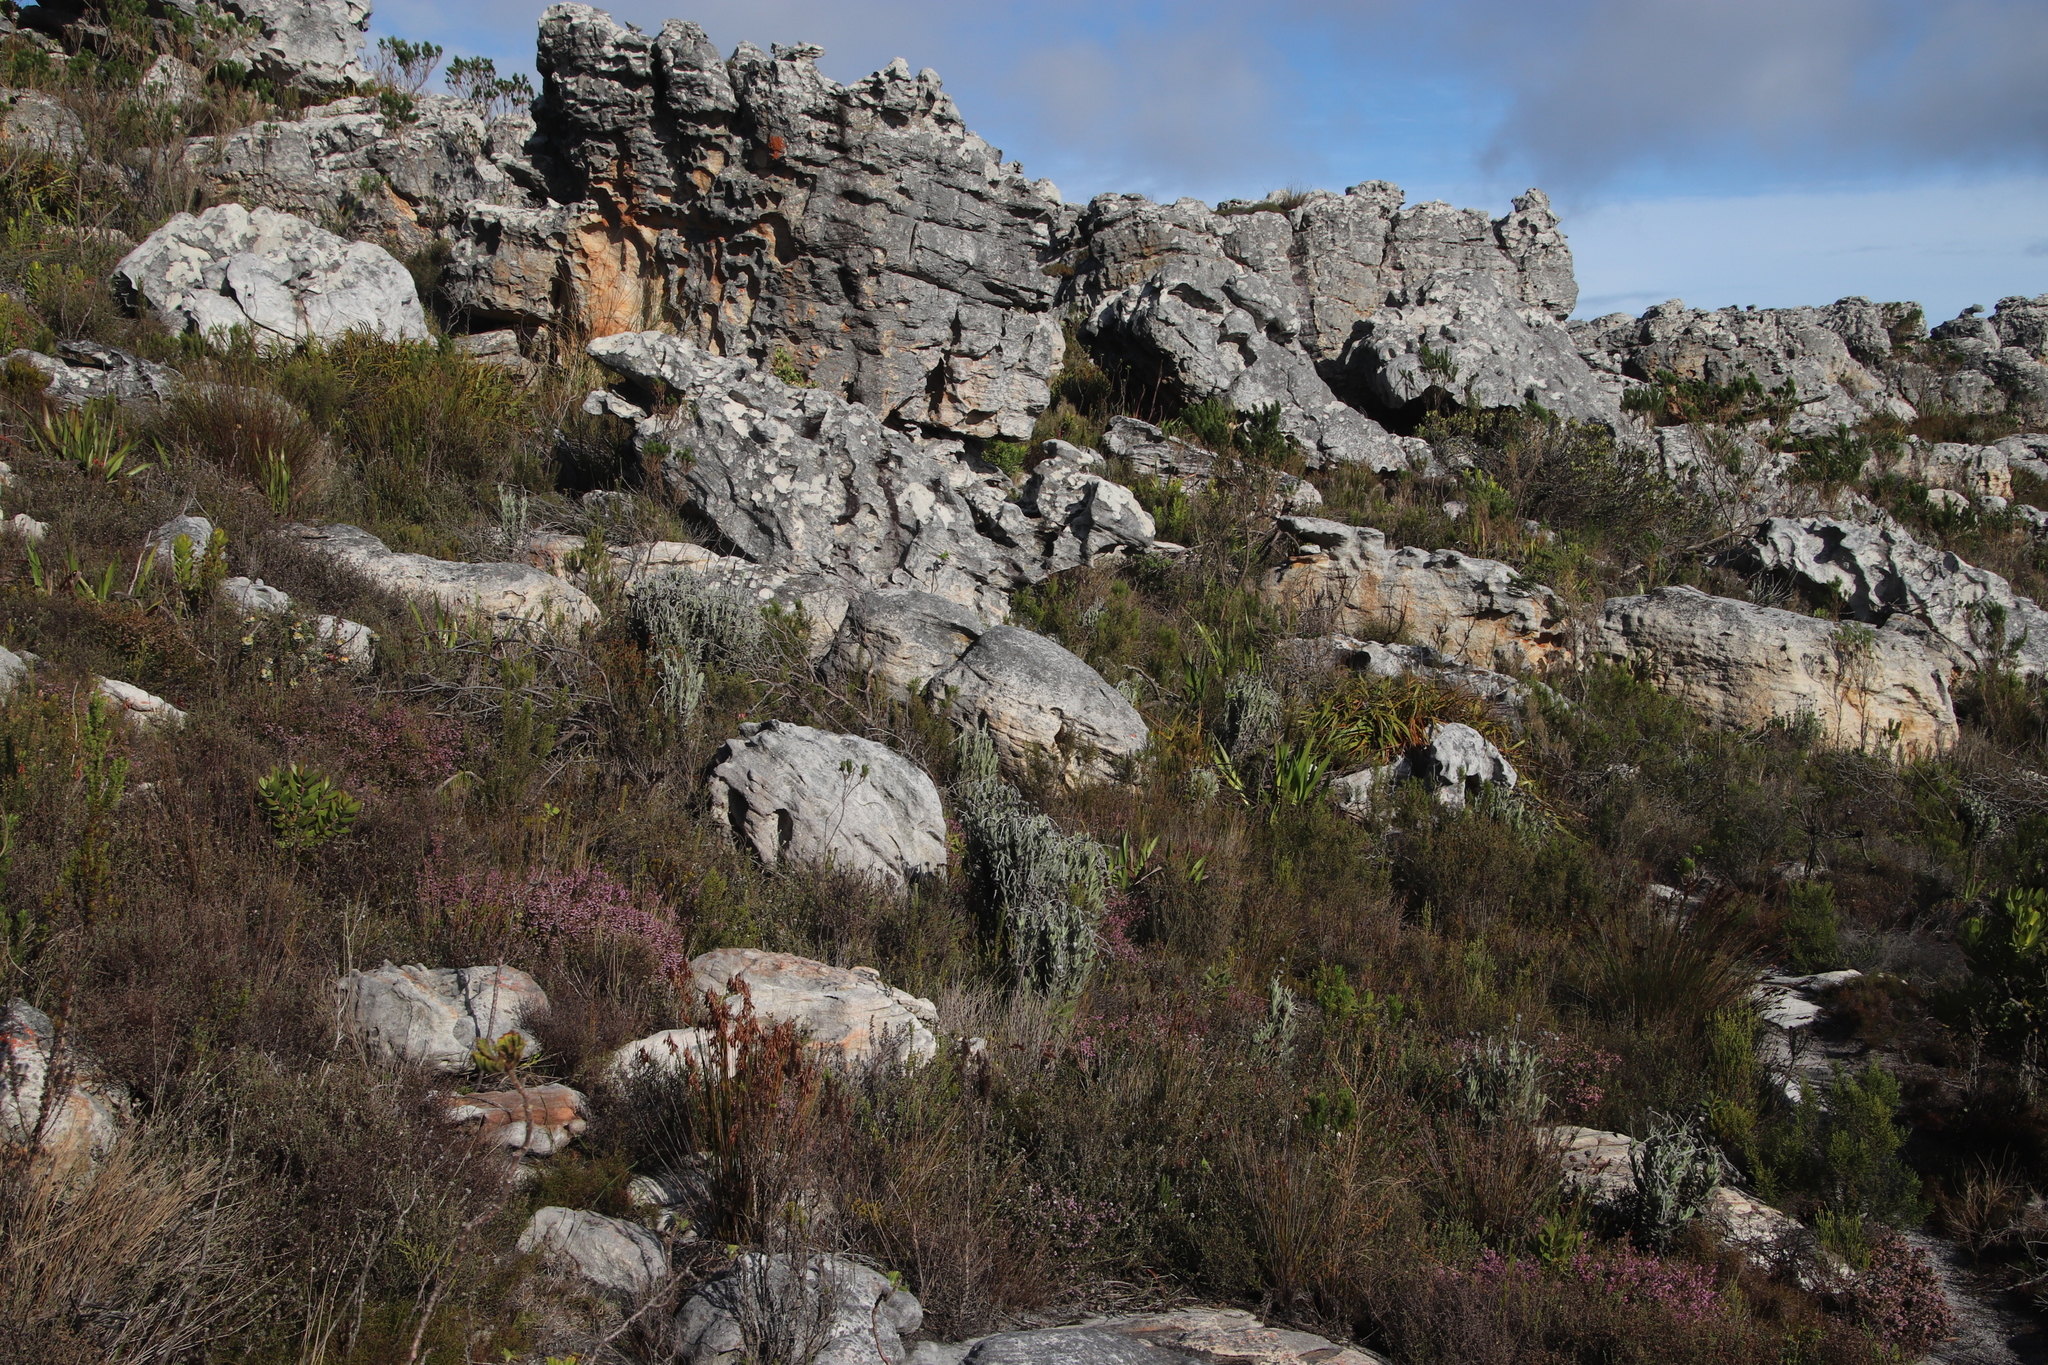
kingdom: Plantae
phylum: Tracheophyta
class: Magnoliopsida
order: Asterales
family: Asteraceae
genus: Syncarpha
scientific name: Syncarpha vestita
